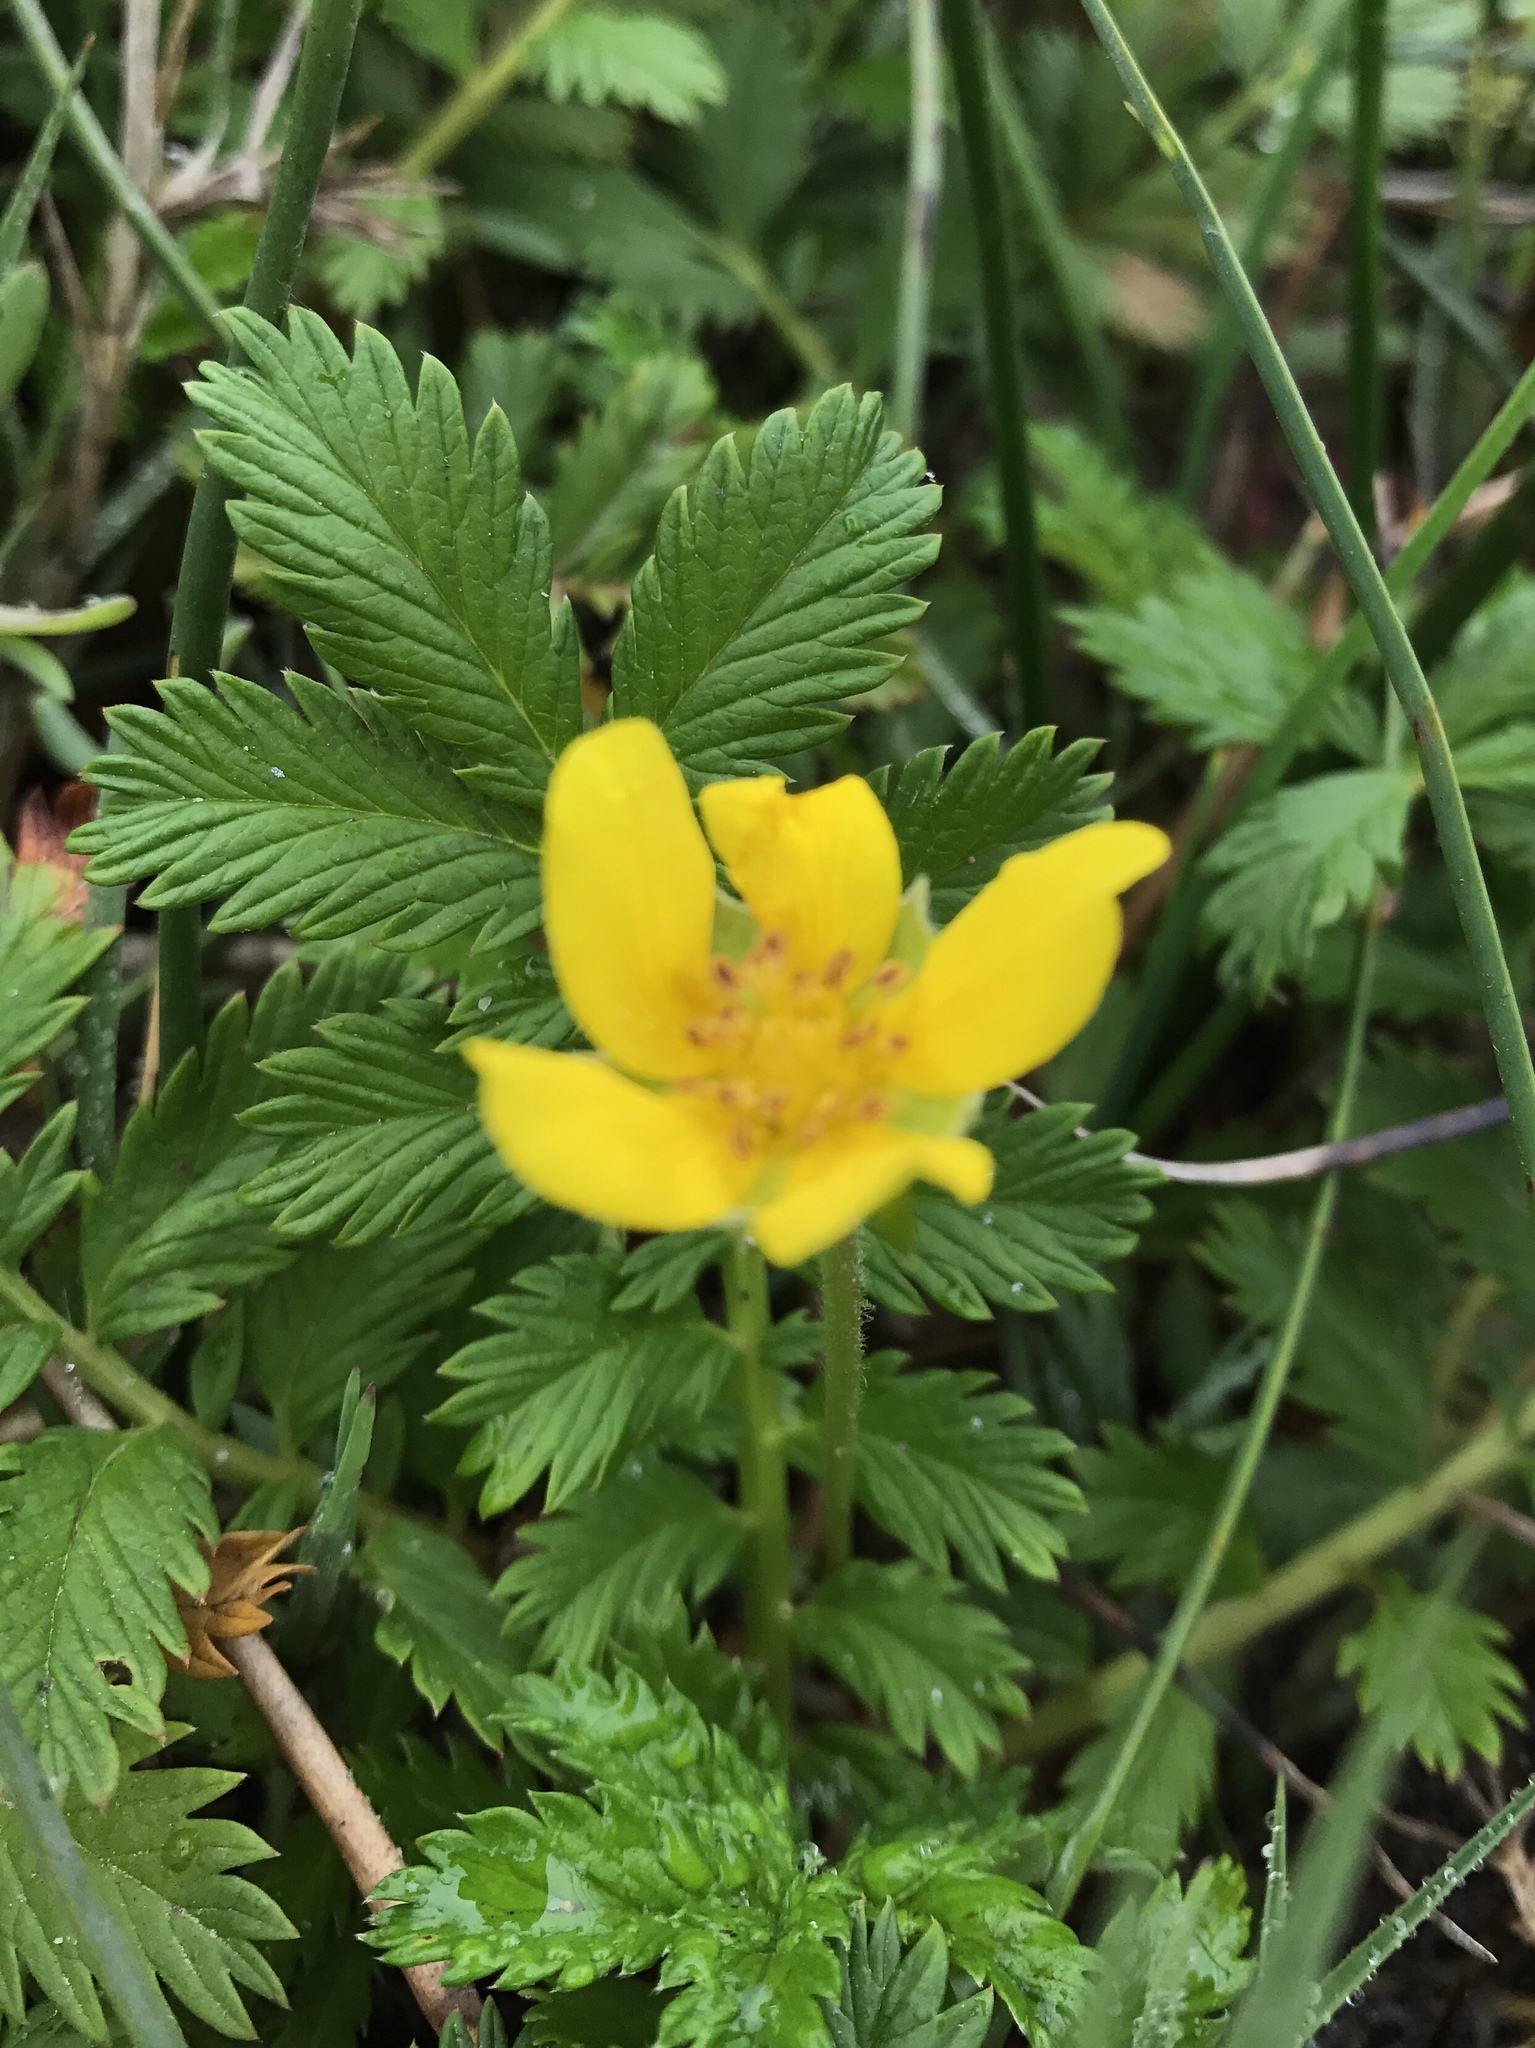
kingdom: Plantae
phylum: Tracheophyta
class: Magnoliopsida
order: Rosales
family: Rosaceae
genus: Argentina
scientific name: Argentina anserina
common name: Common silverweed
